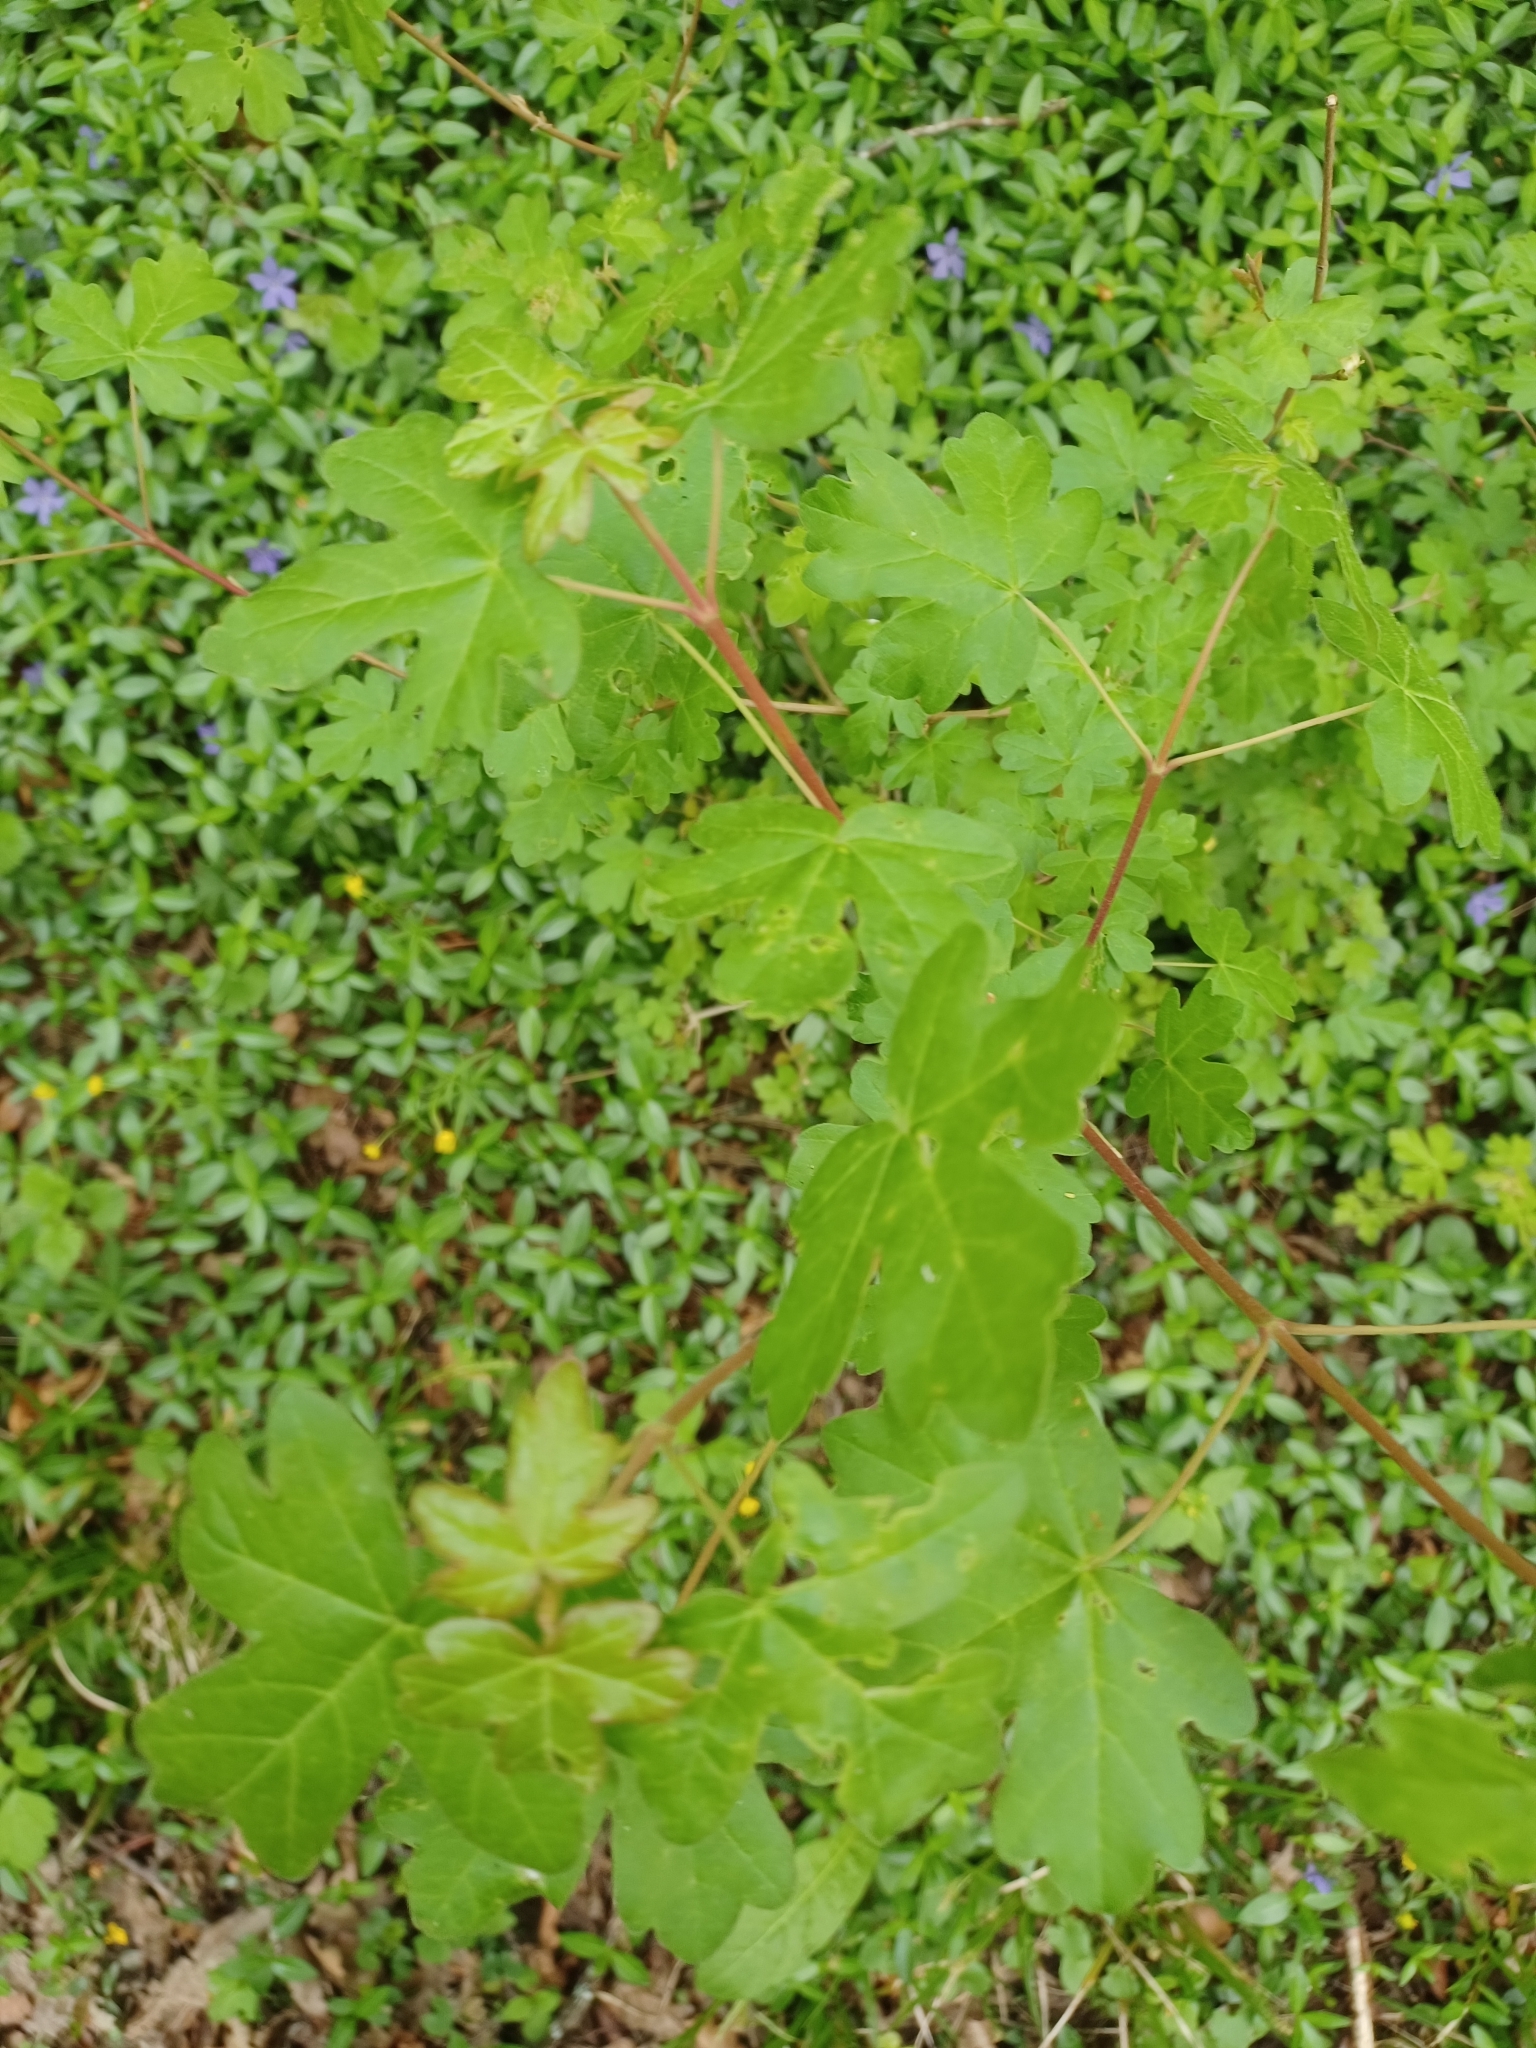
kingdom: Plantae
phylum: Tracheophyta
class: Magnoliopsida
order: Sapindales
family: Sapindaceae
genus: Acer
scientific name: Acer campestre
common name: Field maple
